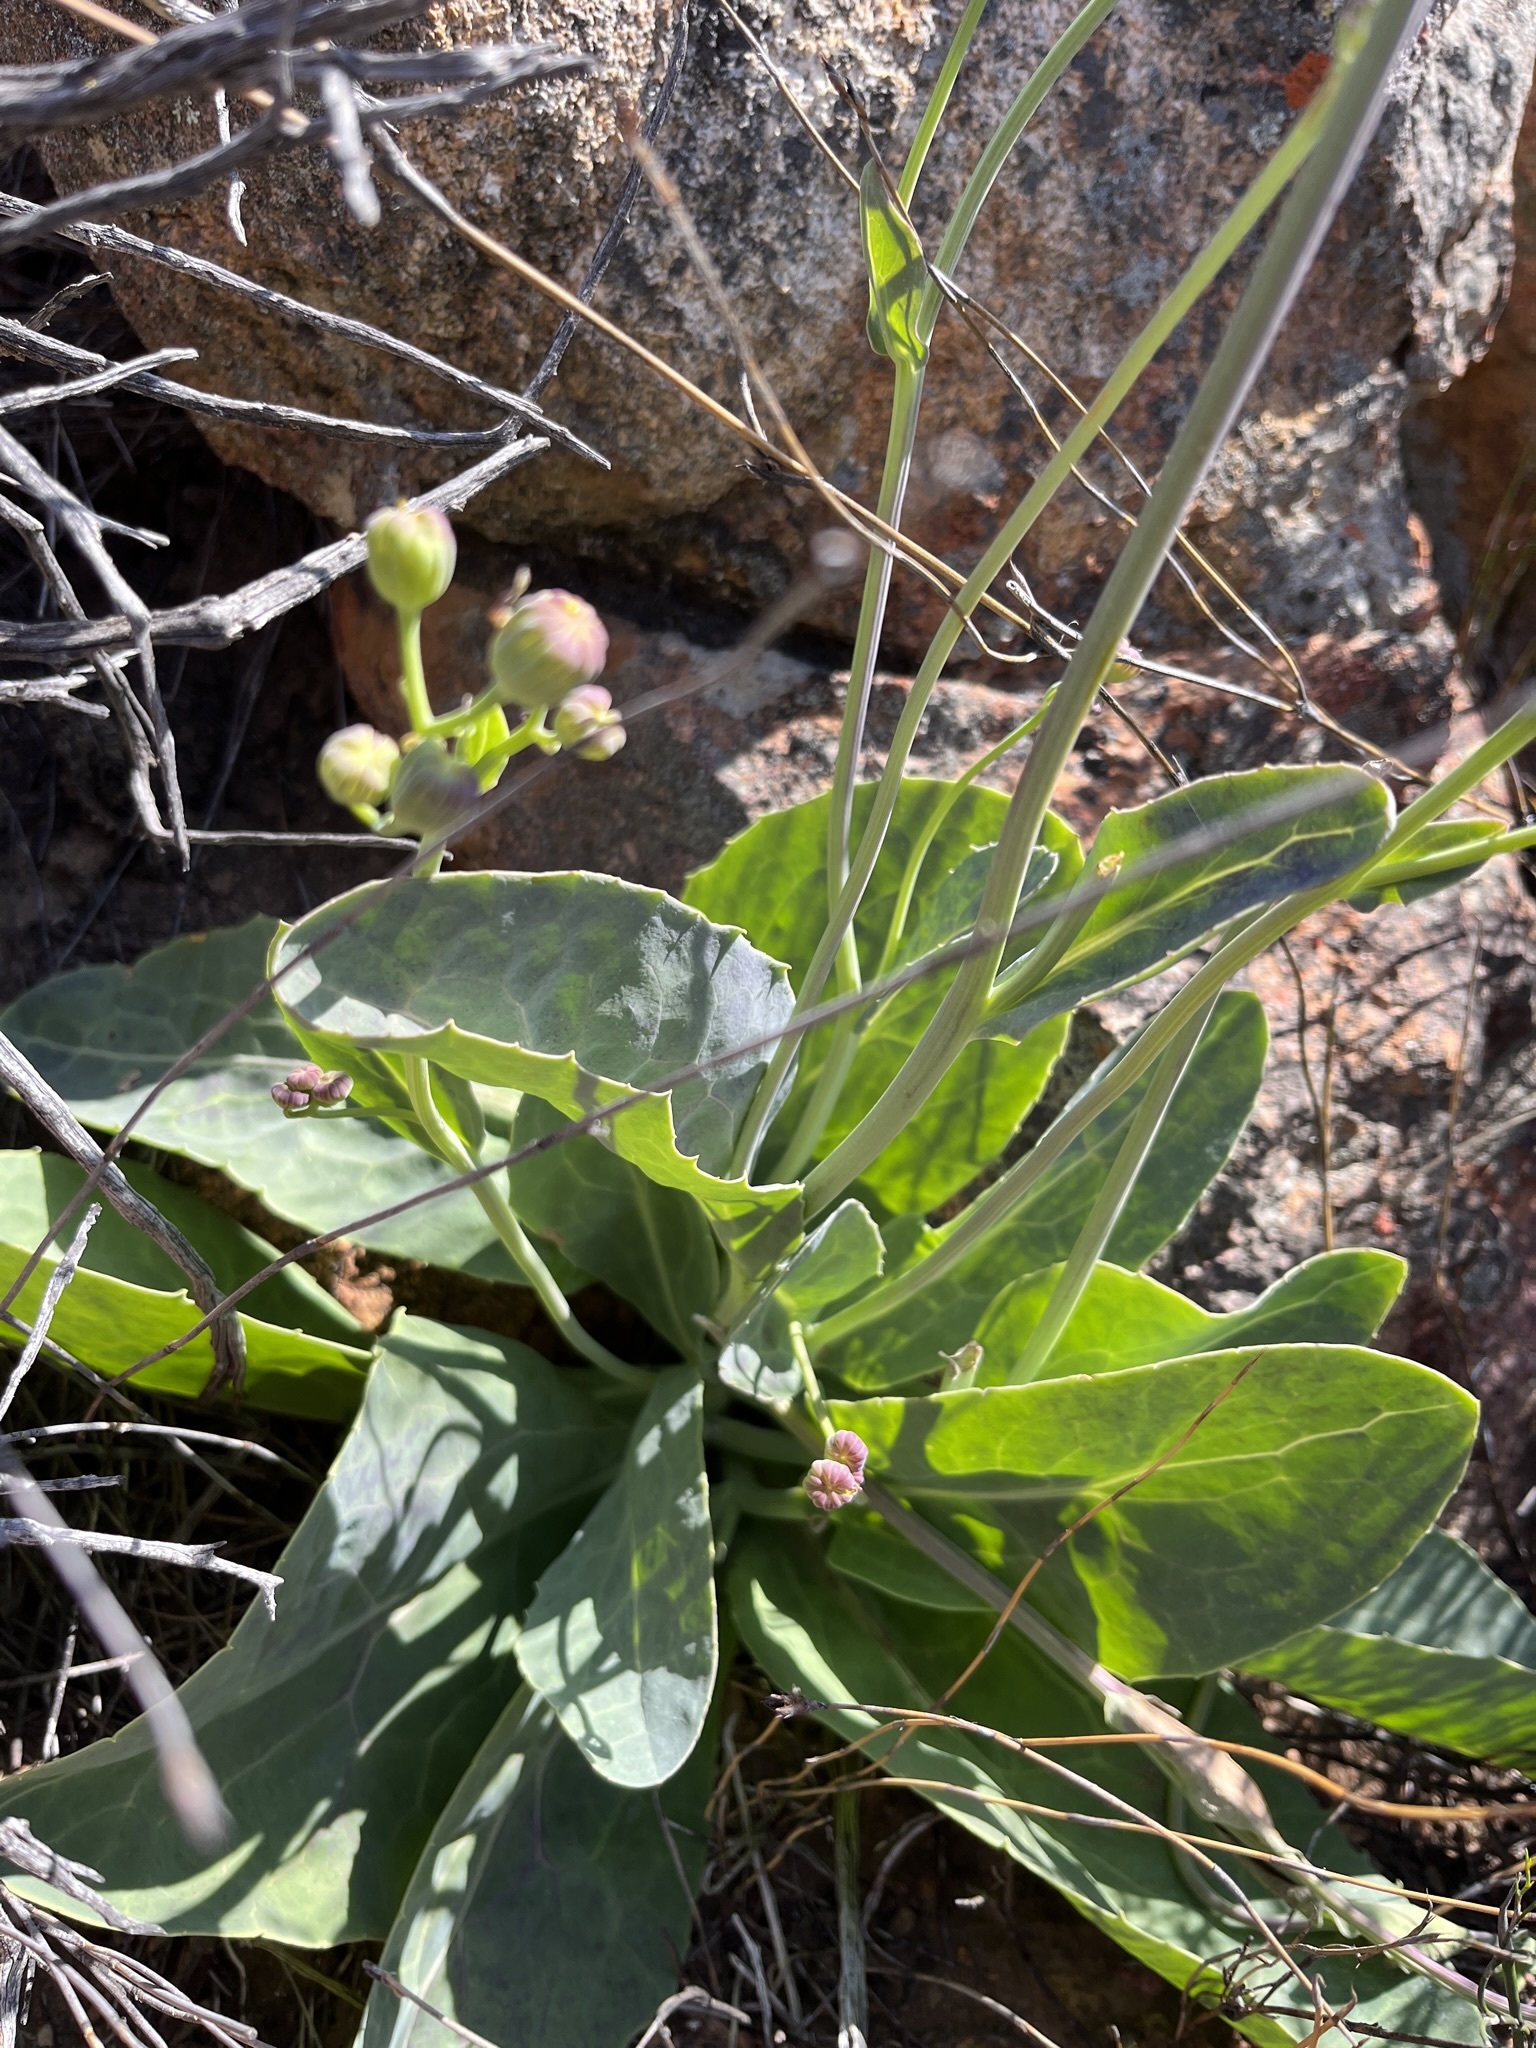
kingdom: Plantae
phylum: Tracheophyta
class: Magnoliopsida
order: Asterales
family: Asteraceae
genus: Othonna
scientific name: Othonna macrophylla
